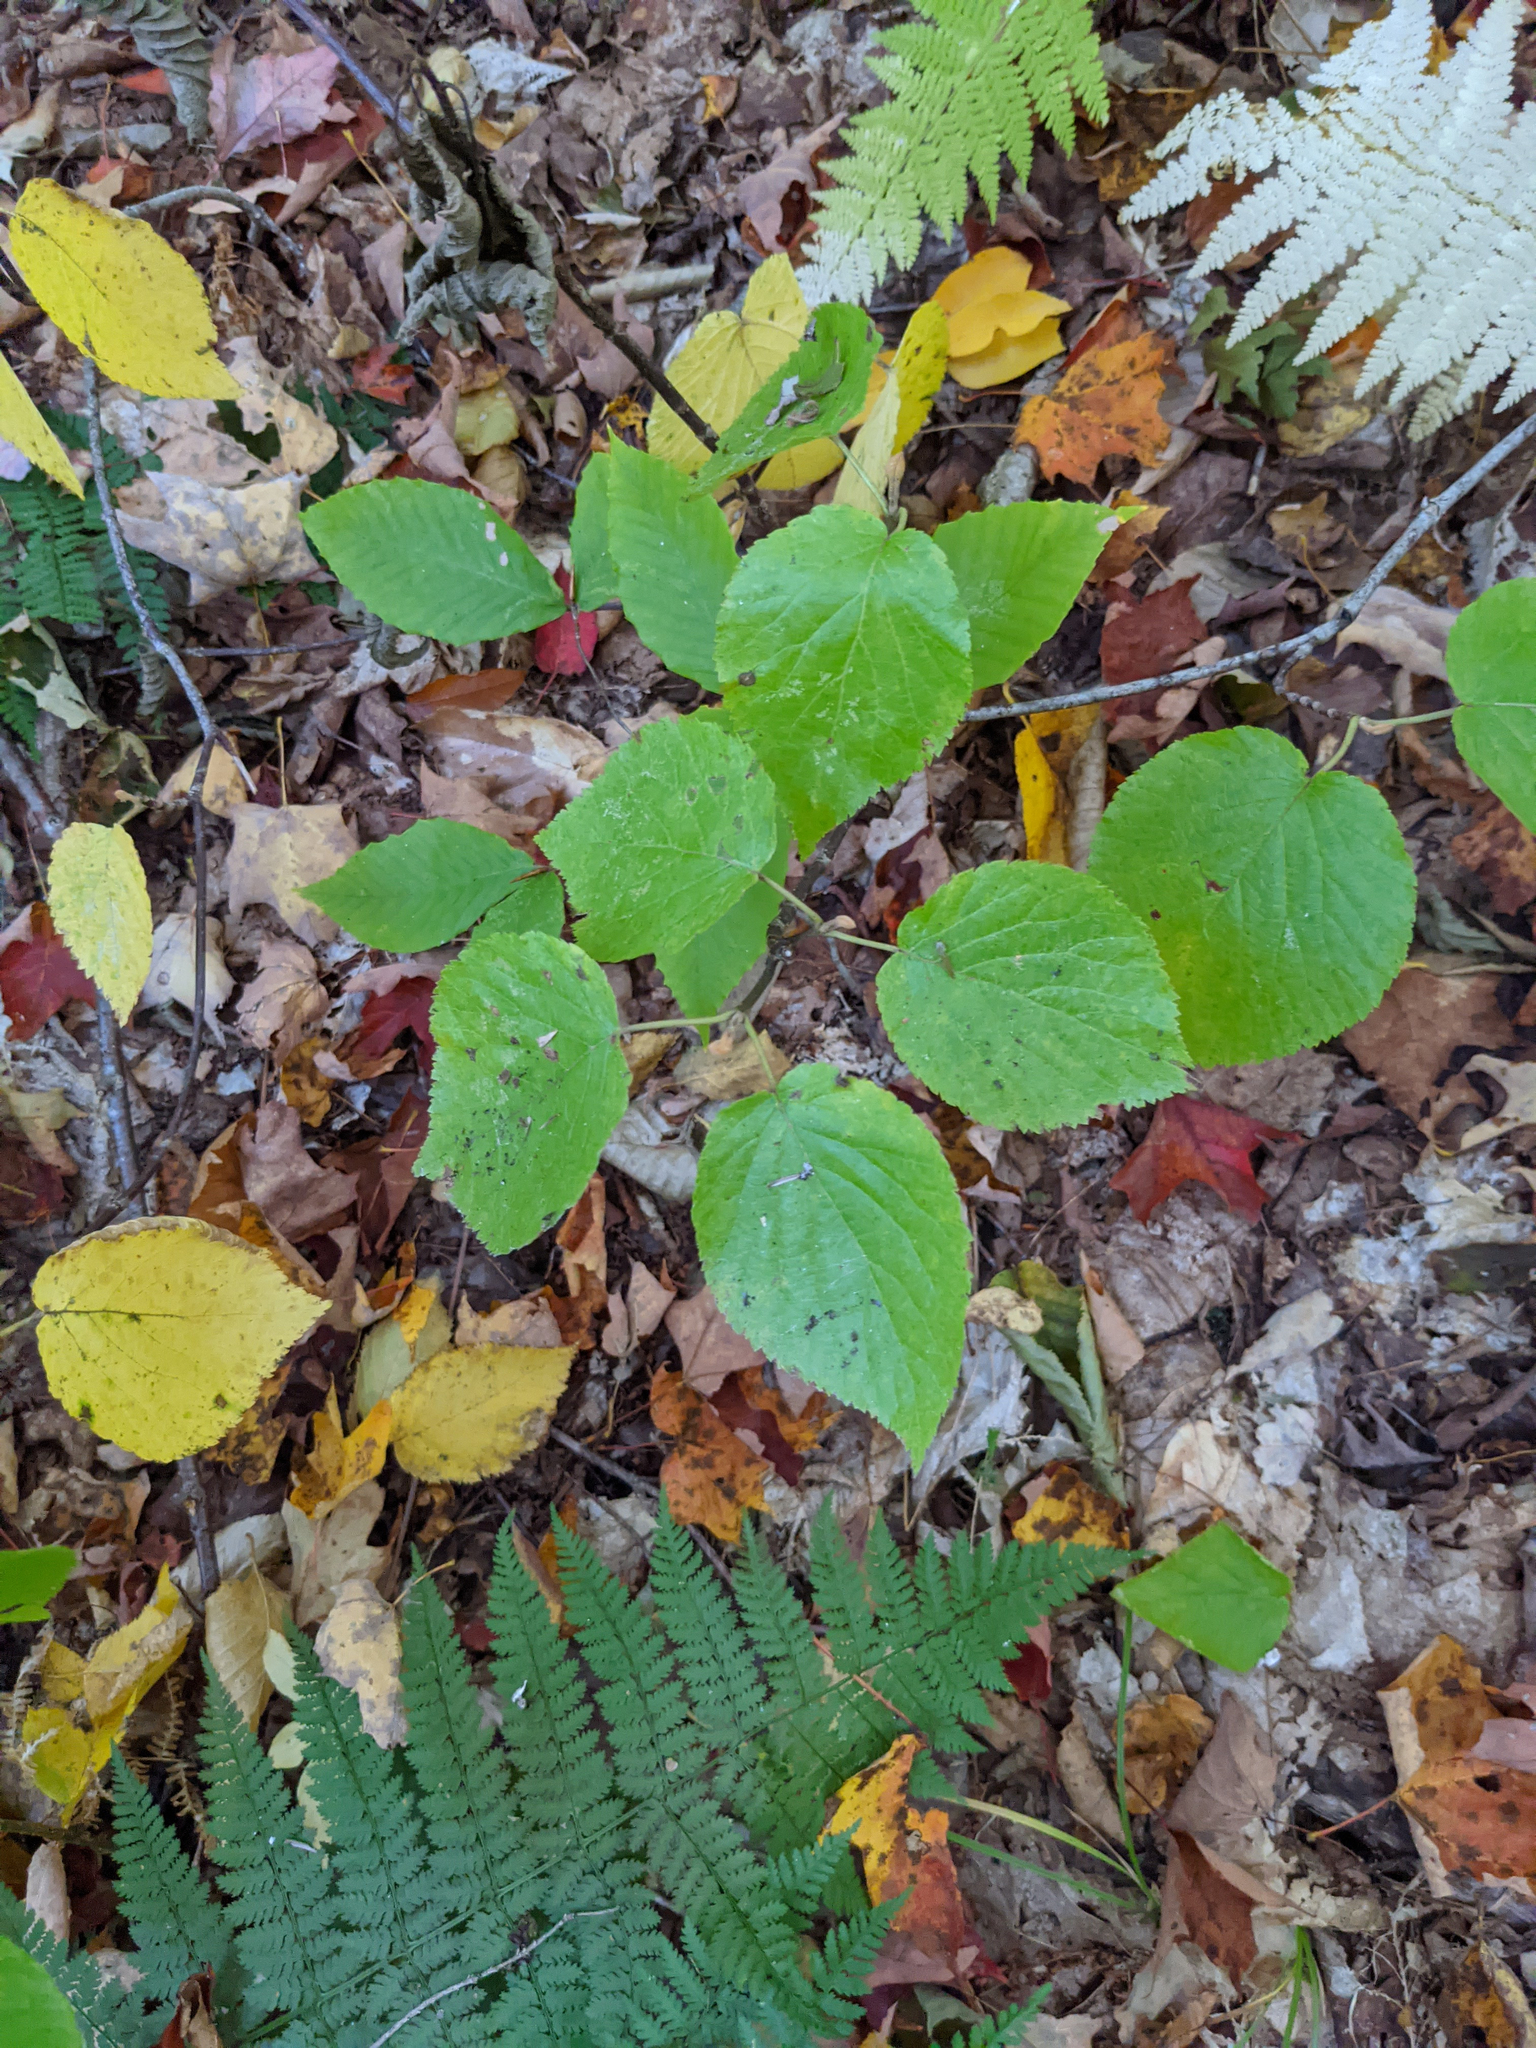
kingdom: Plantae
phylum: Tracheophyta
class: Magnoliopsida
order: Dipsacales
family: Viburnaceae
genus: Viburnum
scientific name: Viburnum lantanoides
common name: Hobblebush
